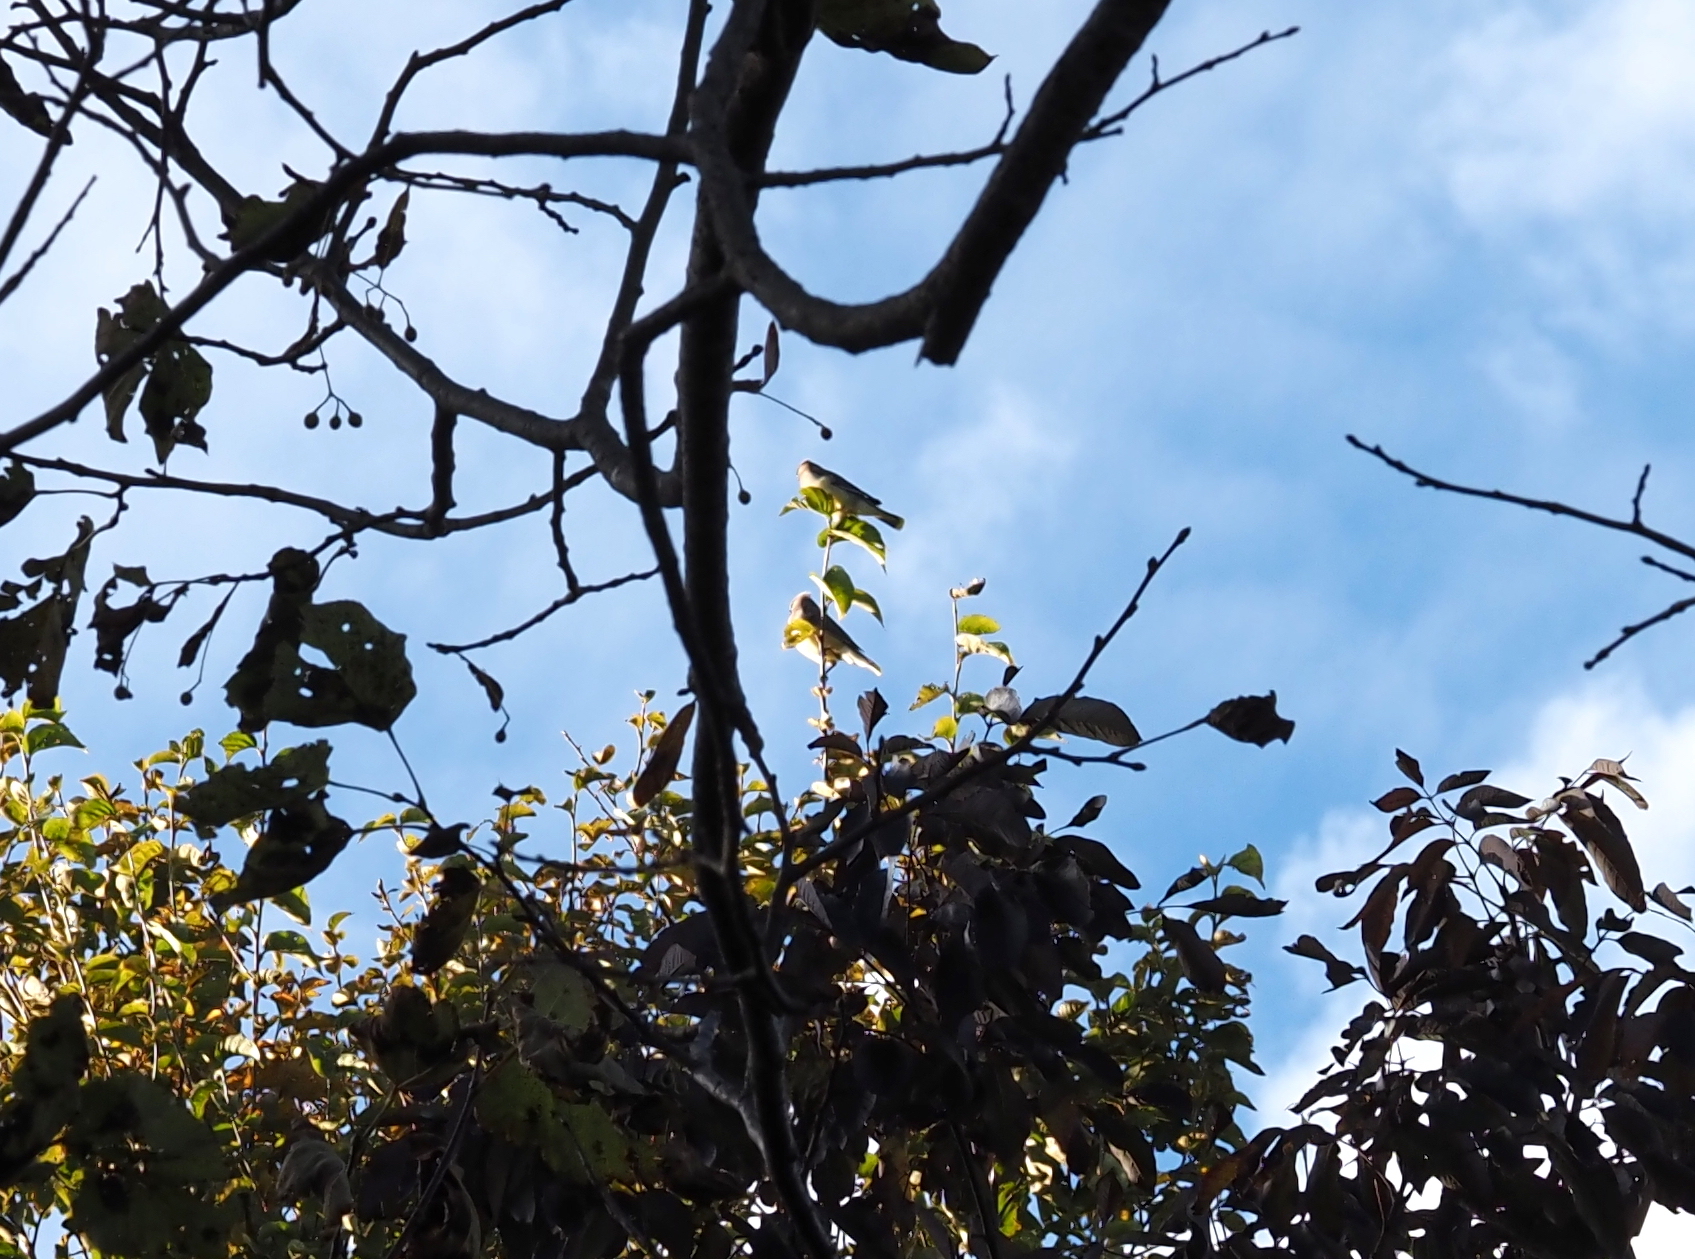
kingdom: Animalia
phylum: Chordata
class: Aves
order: Passeriformes
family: Bombycillidae
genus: Bombycilla
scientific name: Bombycilla cedrorum
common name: Cedar waxwing
